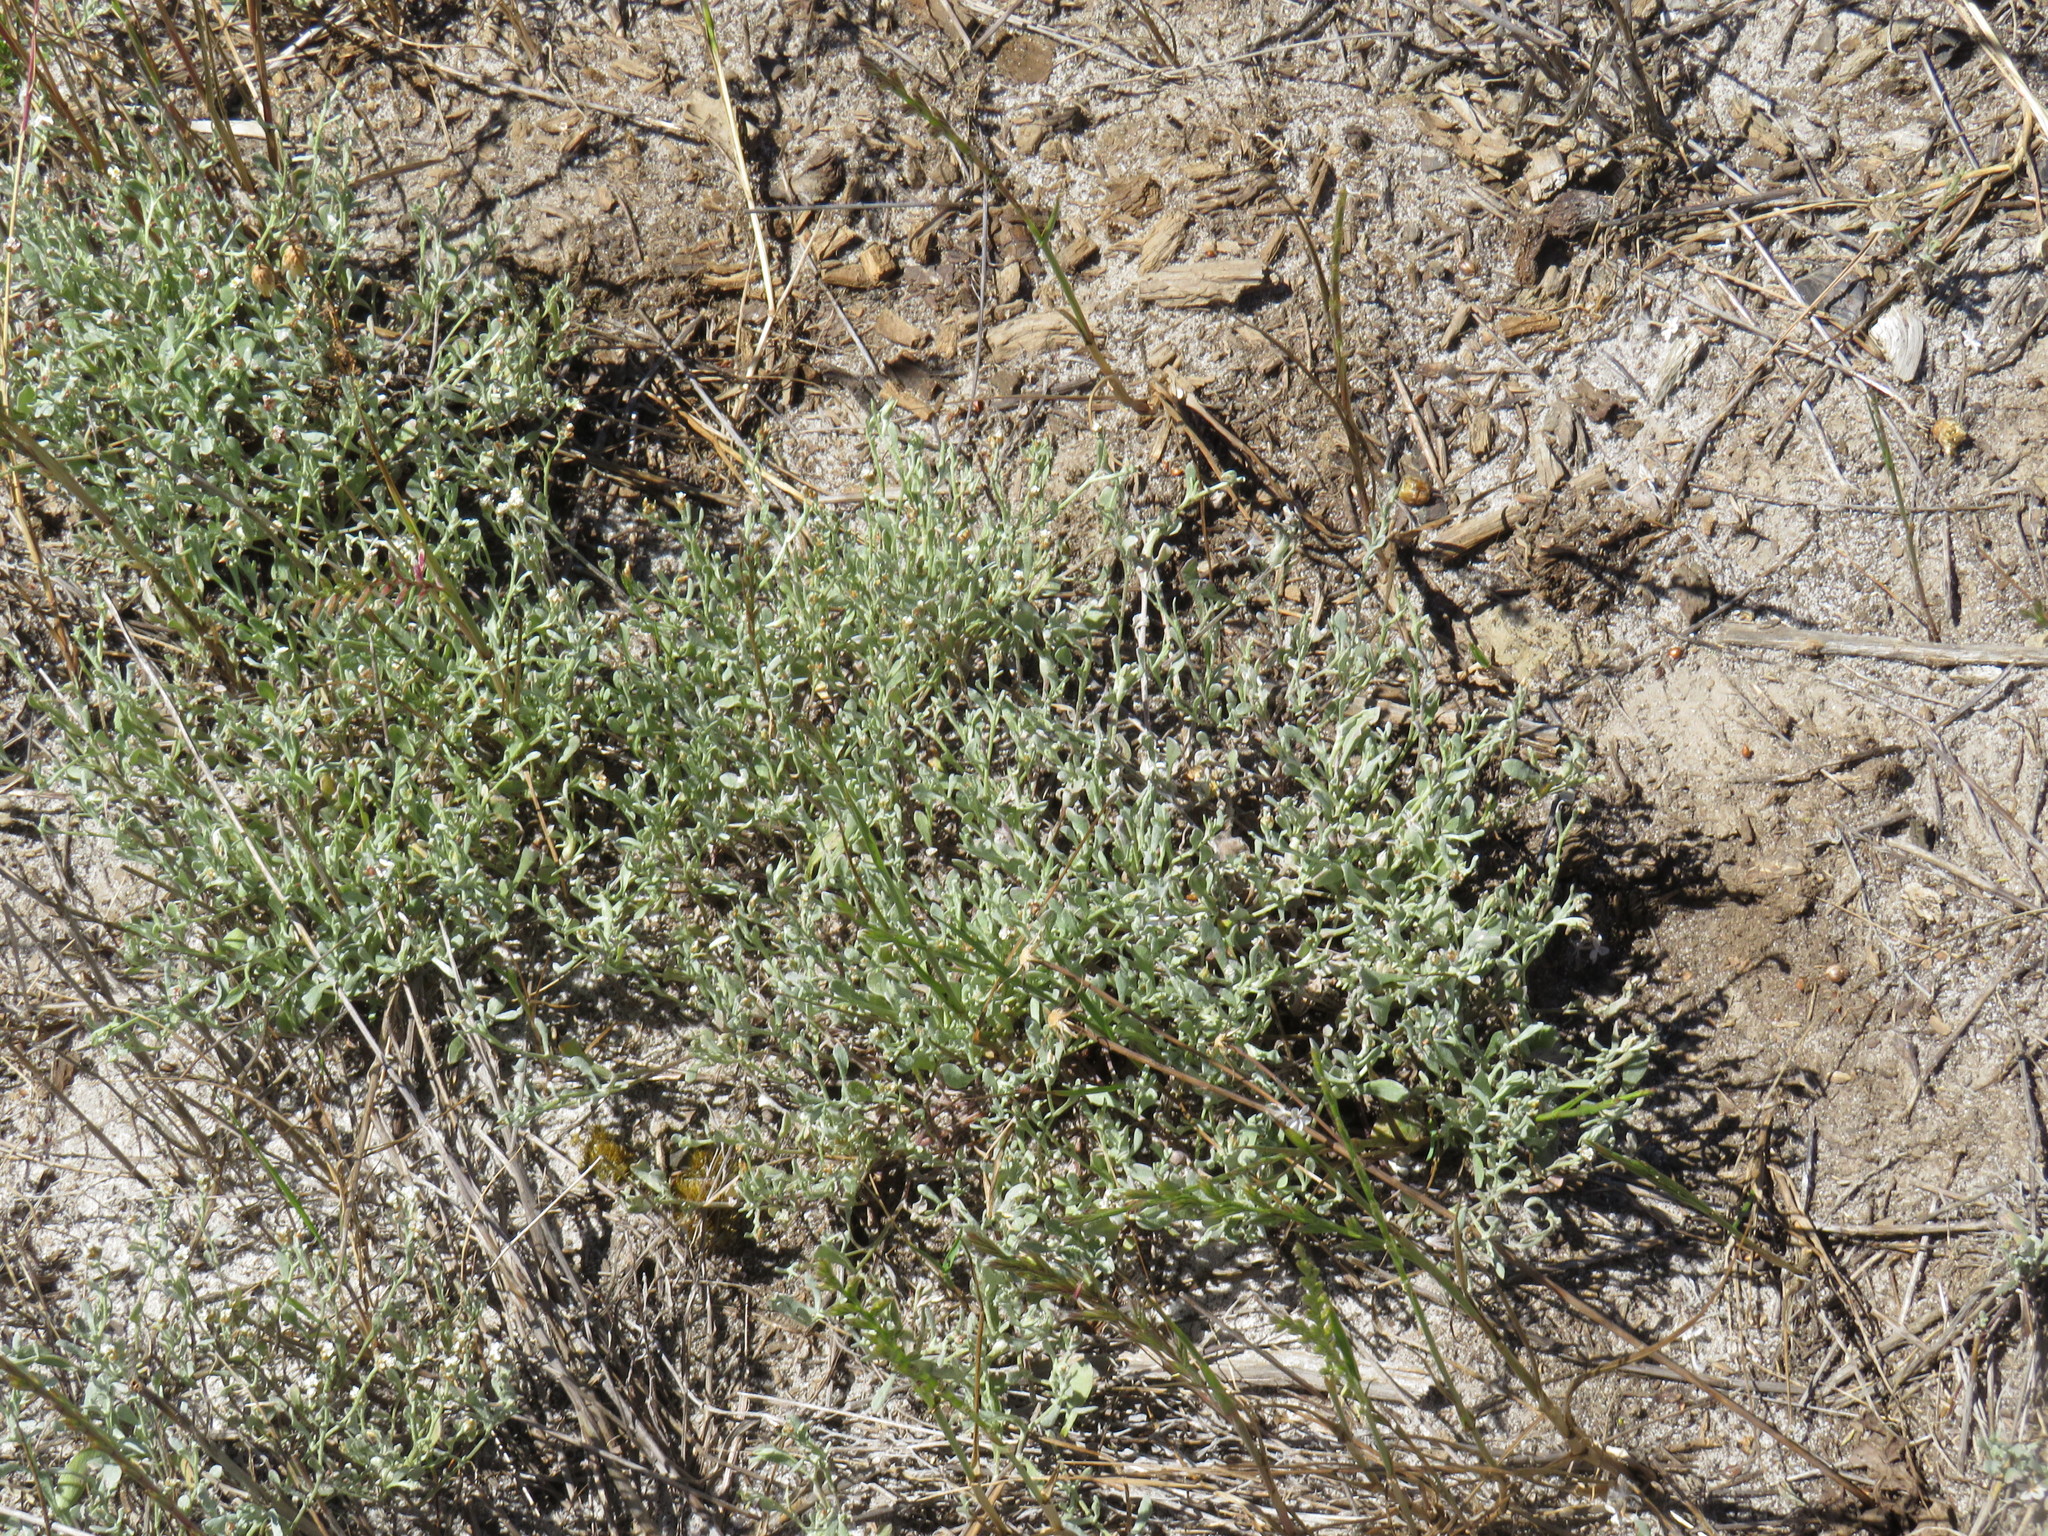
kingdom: Plantae
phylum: Tracheophyta
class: Magnoliopsida
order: Asterales
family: Asteraceae
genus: Helichrysum
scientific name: Helichrysum indicum
